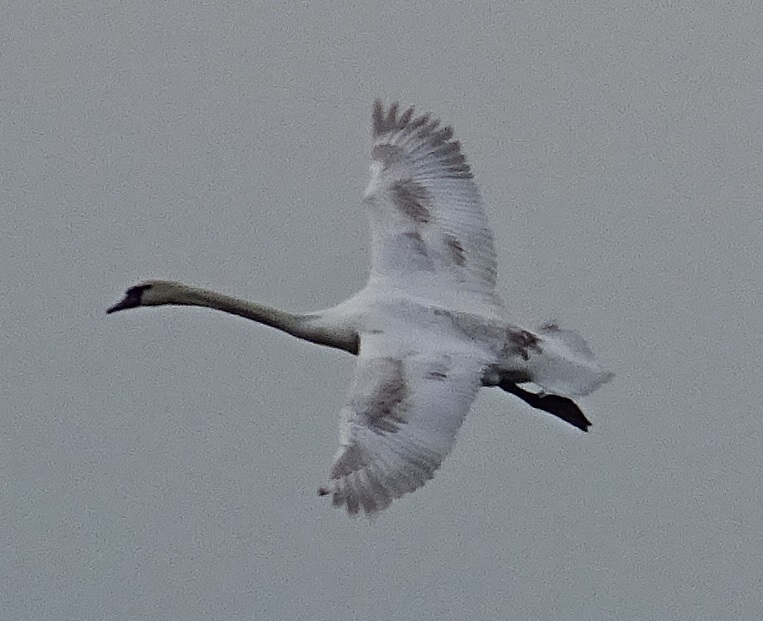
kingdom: Animalia
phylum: Chordata
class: Aves
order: Anseriformes
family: Anatidae
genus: Cygnus
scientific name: Cygnus olor
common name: Mute swan
